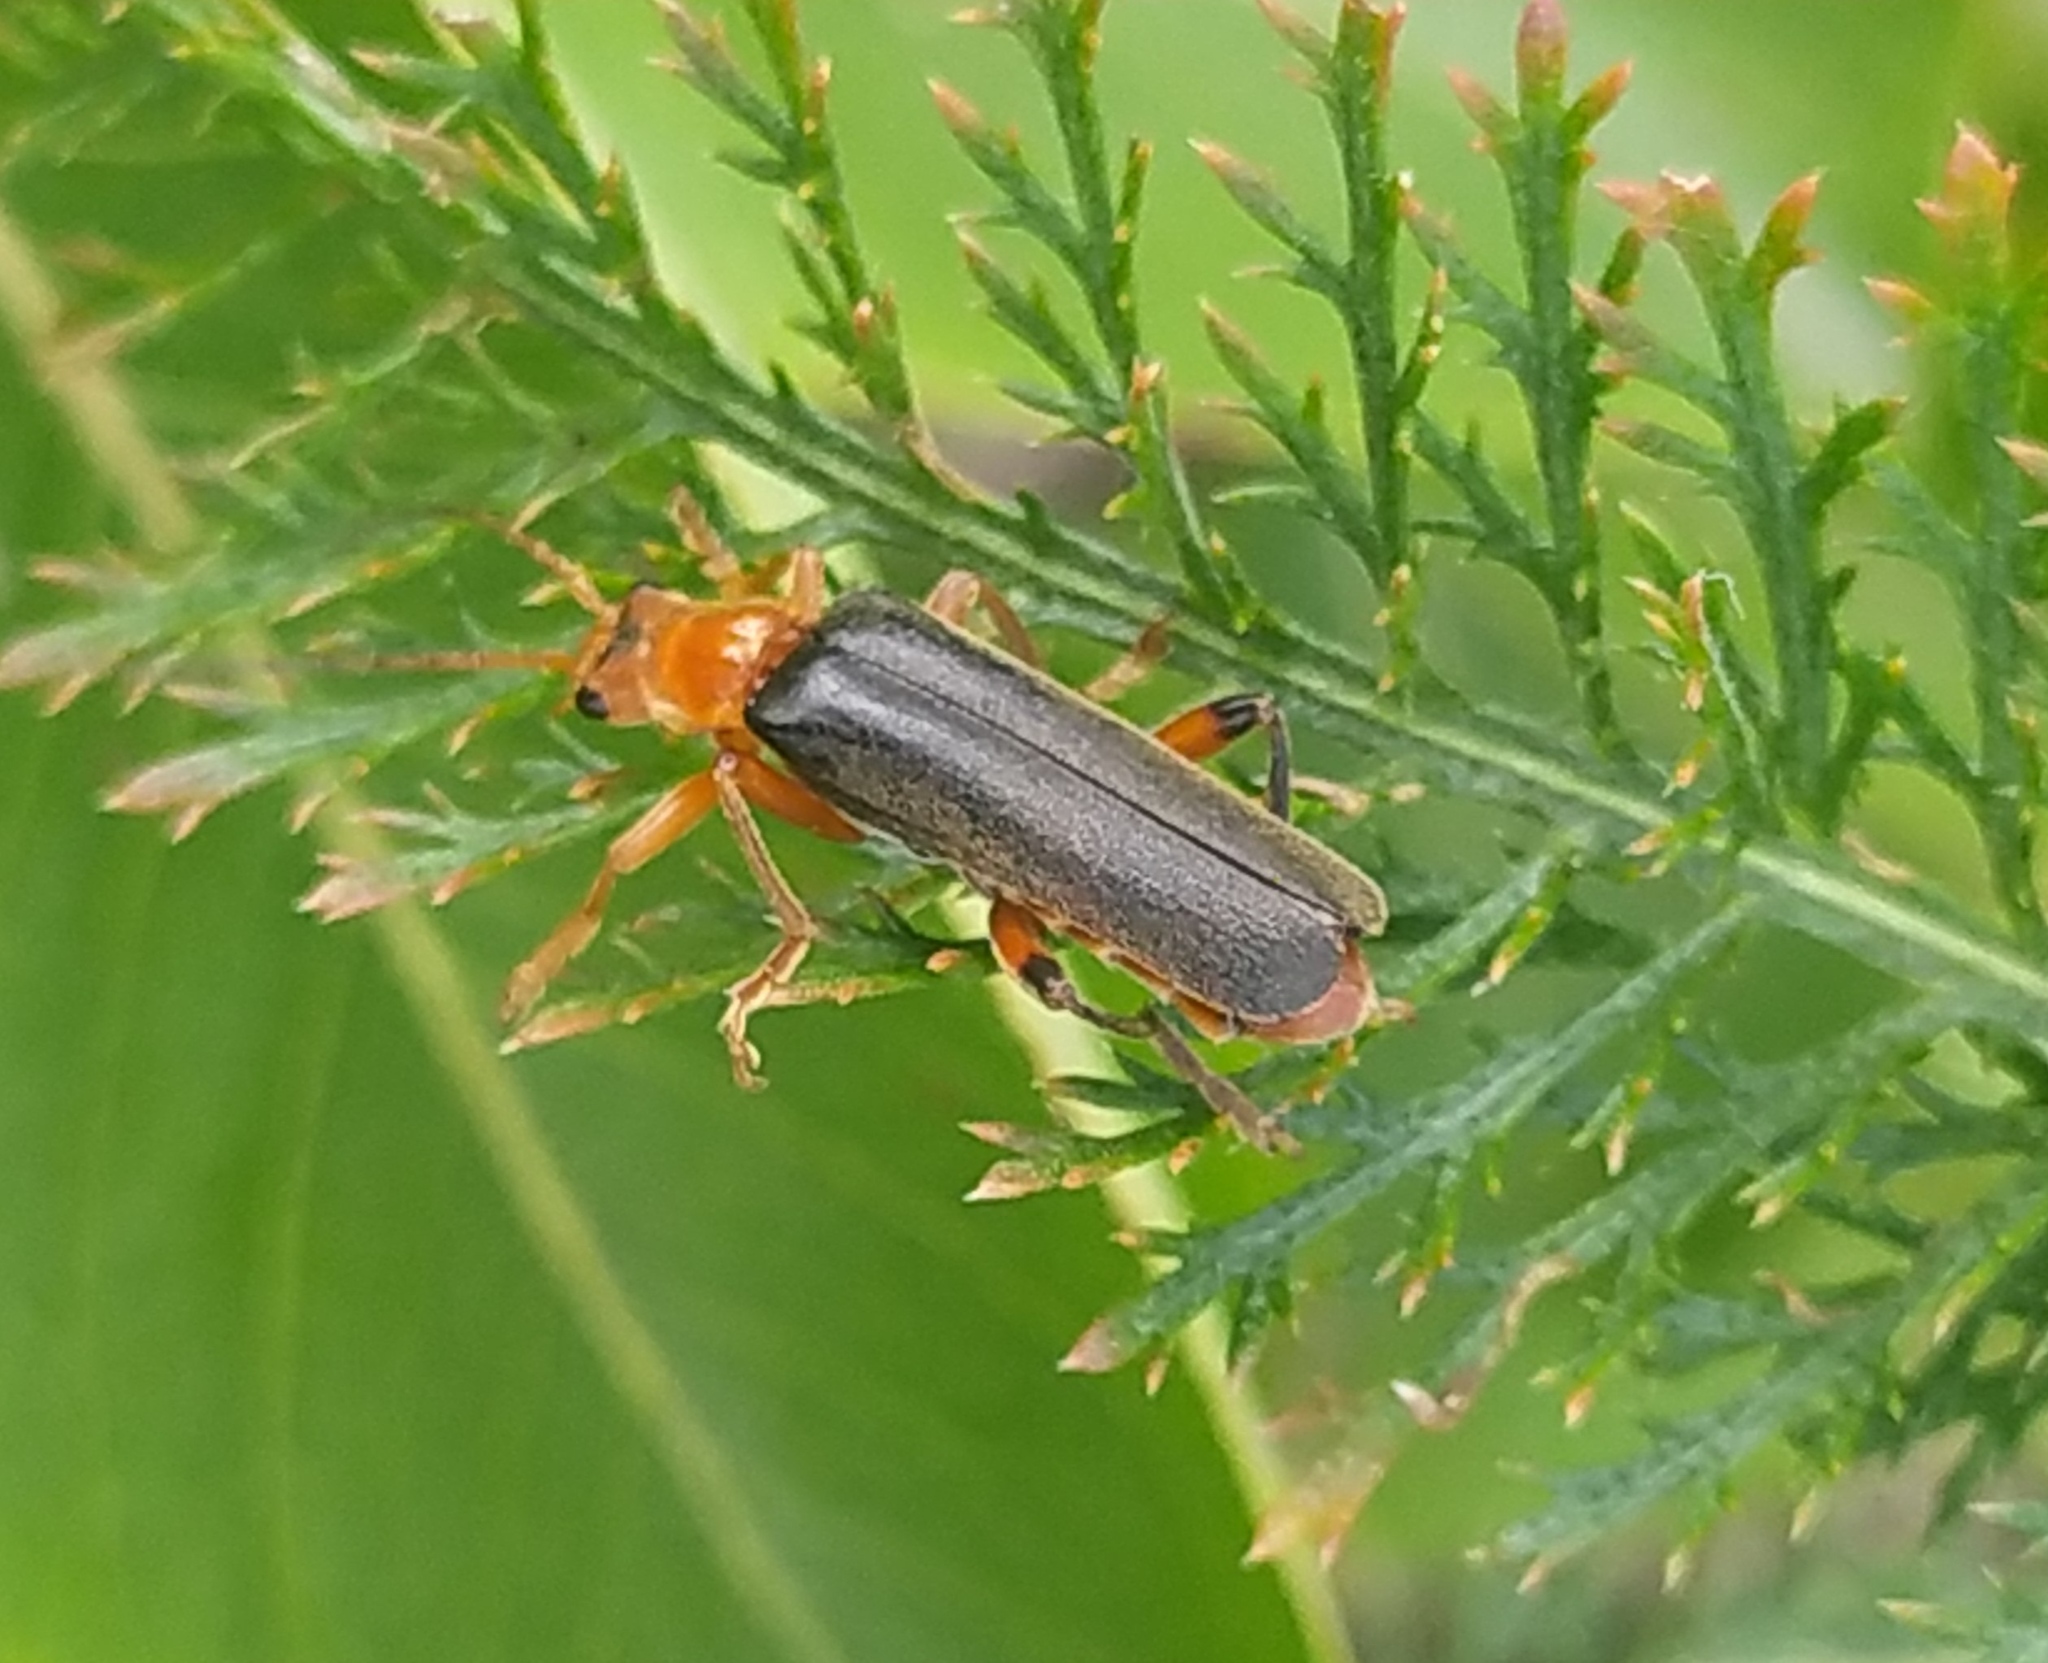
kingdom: Animalia
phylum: Arthropoda
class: Insecta
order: Coleoptera
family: Cantharidae
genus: Cantharis
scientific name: Cantharis livida
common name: Livid soldier beetle
